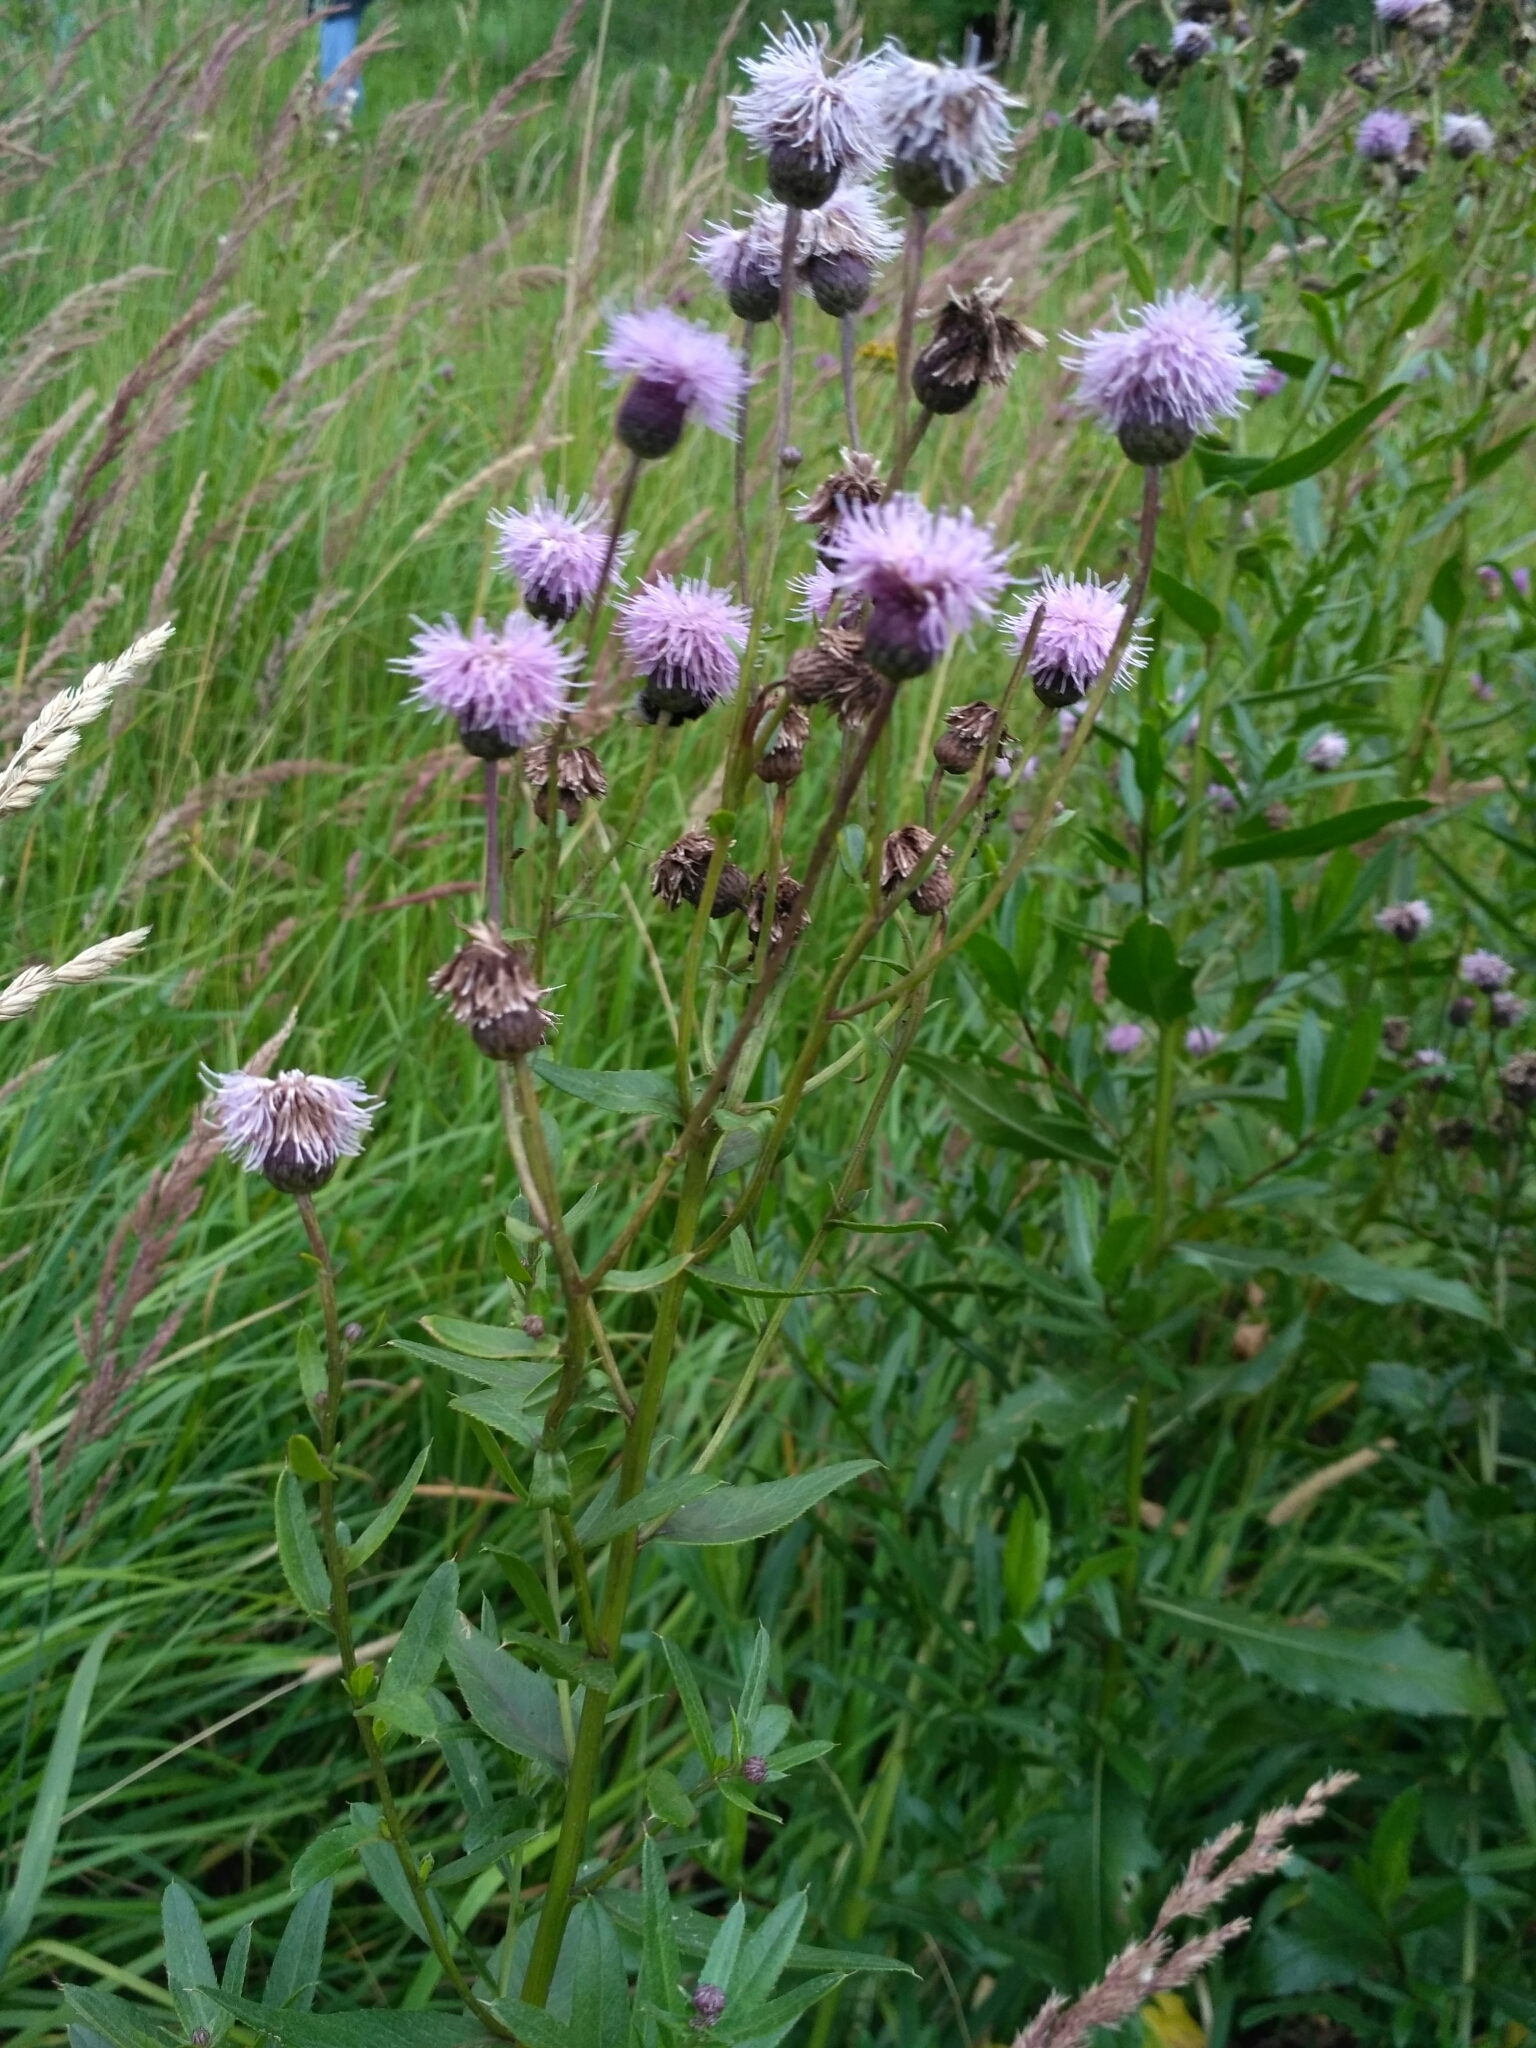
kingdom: Plantae
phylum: Tracheophyta
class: Magnoliopsida
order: Asterales
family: Asteraceae
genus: Cirsium
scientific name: Cirsium arvense
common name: Creeping thistle
